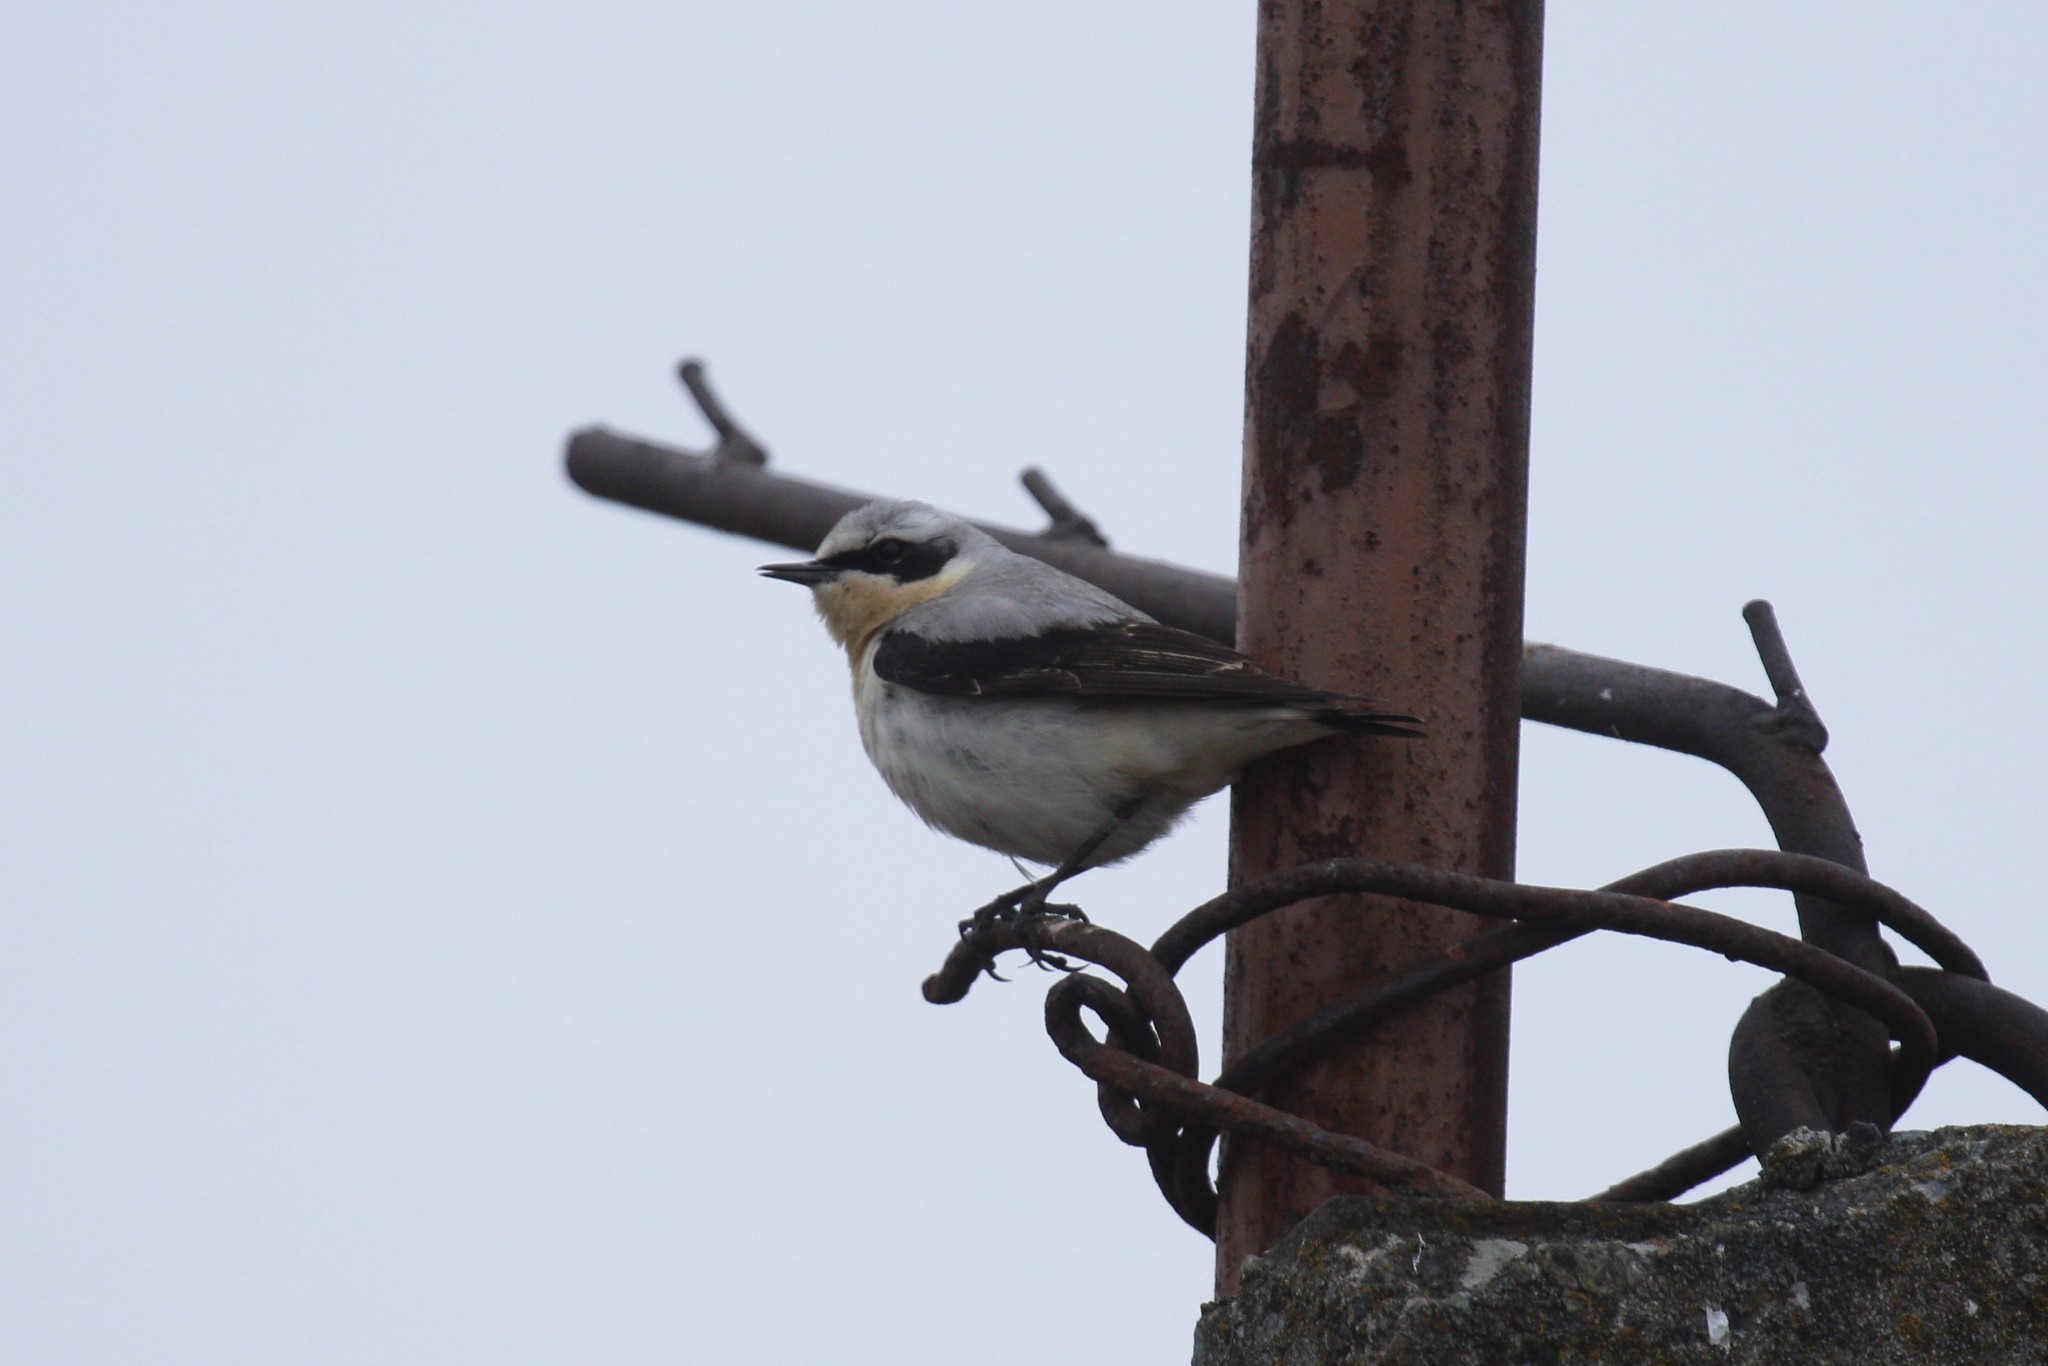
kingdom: Animalia
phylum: Chordata
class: Aves
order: Passeriformes
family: Muscicapidae
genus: Oenanthe
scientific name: Oenanthe oenanthe
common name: Northern wheatear
